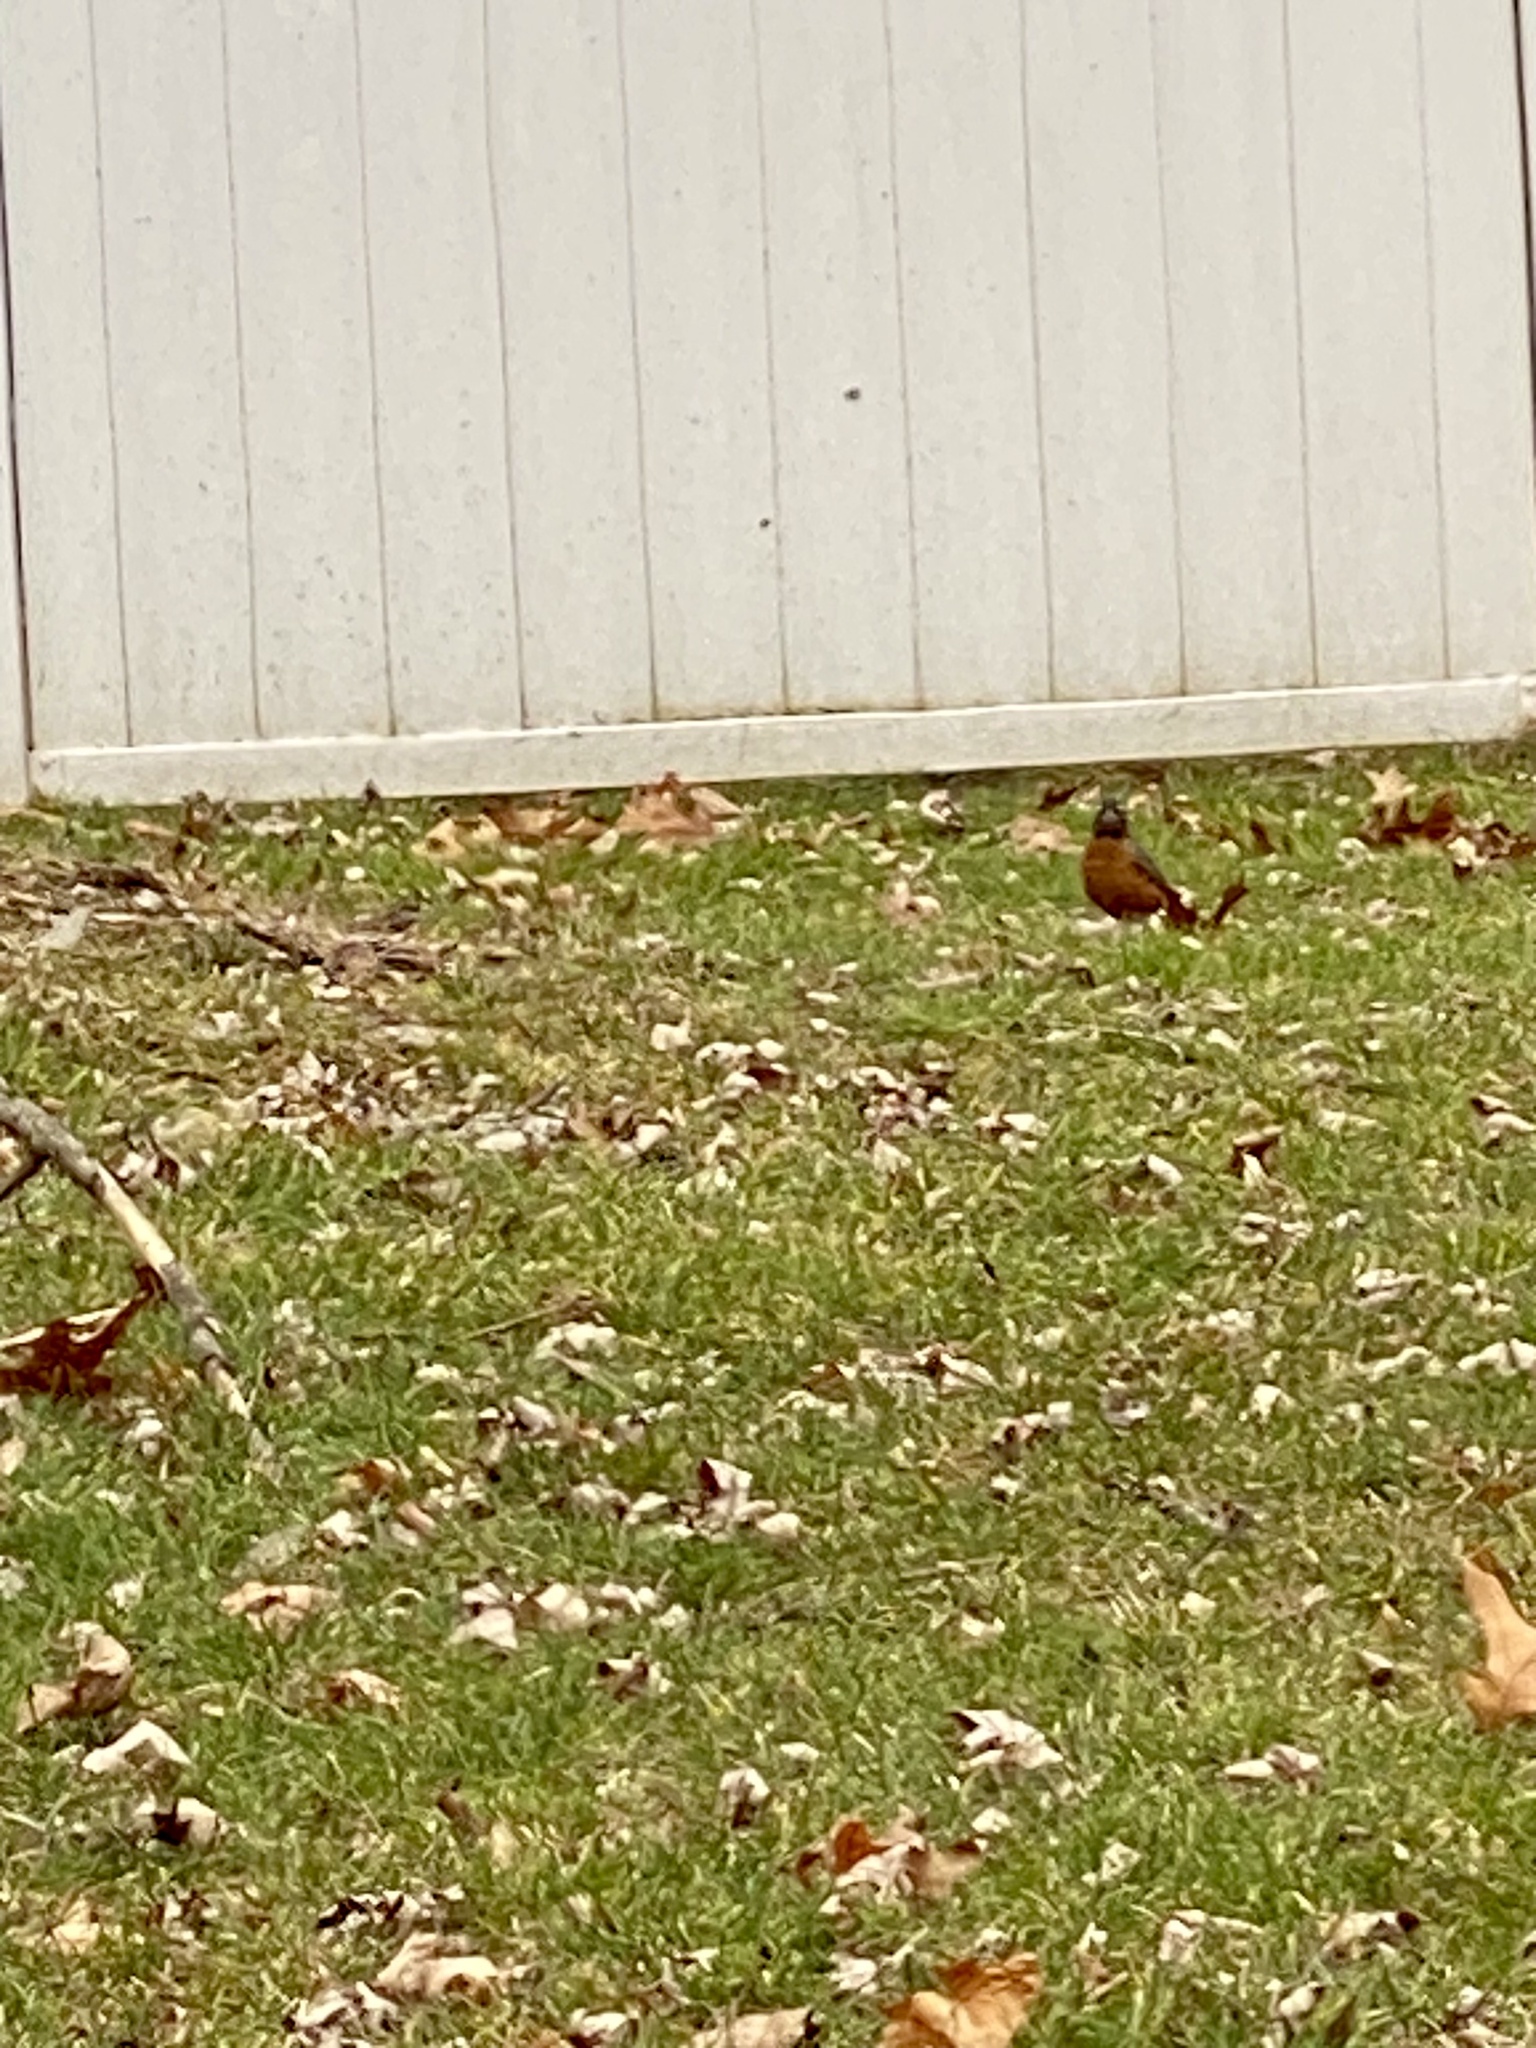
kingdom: Animalia
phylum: Chordata
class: Aves
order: Passeriformes
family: Turdidae
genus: Turdus
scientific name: Turdus migratorius
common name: American robin
